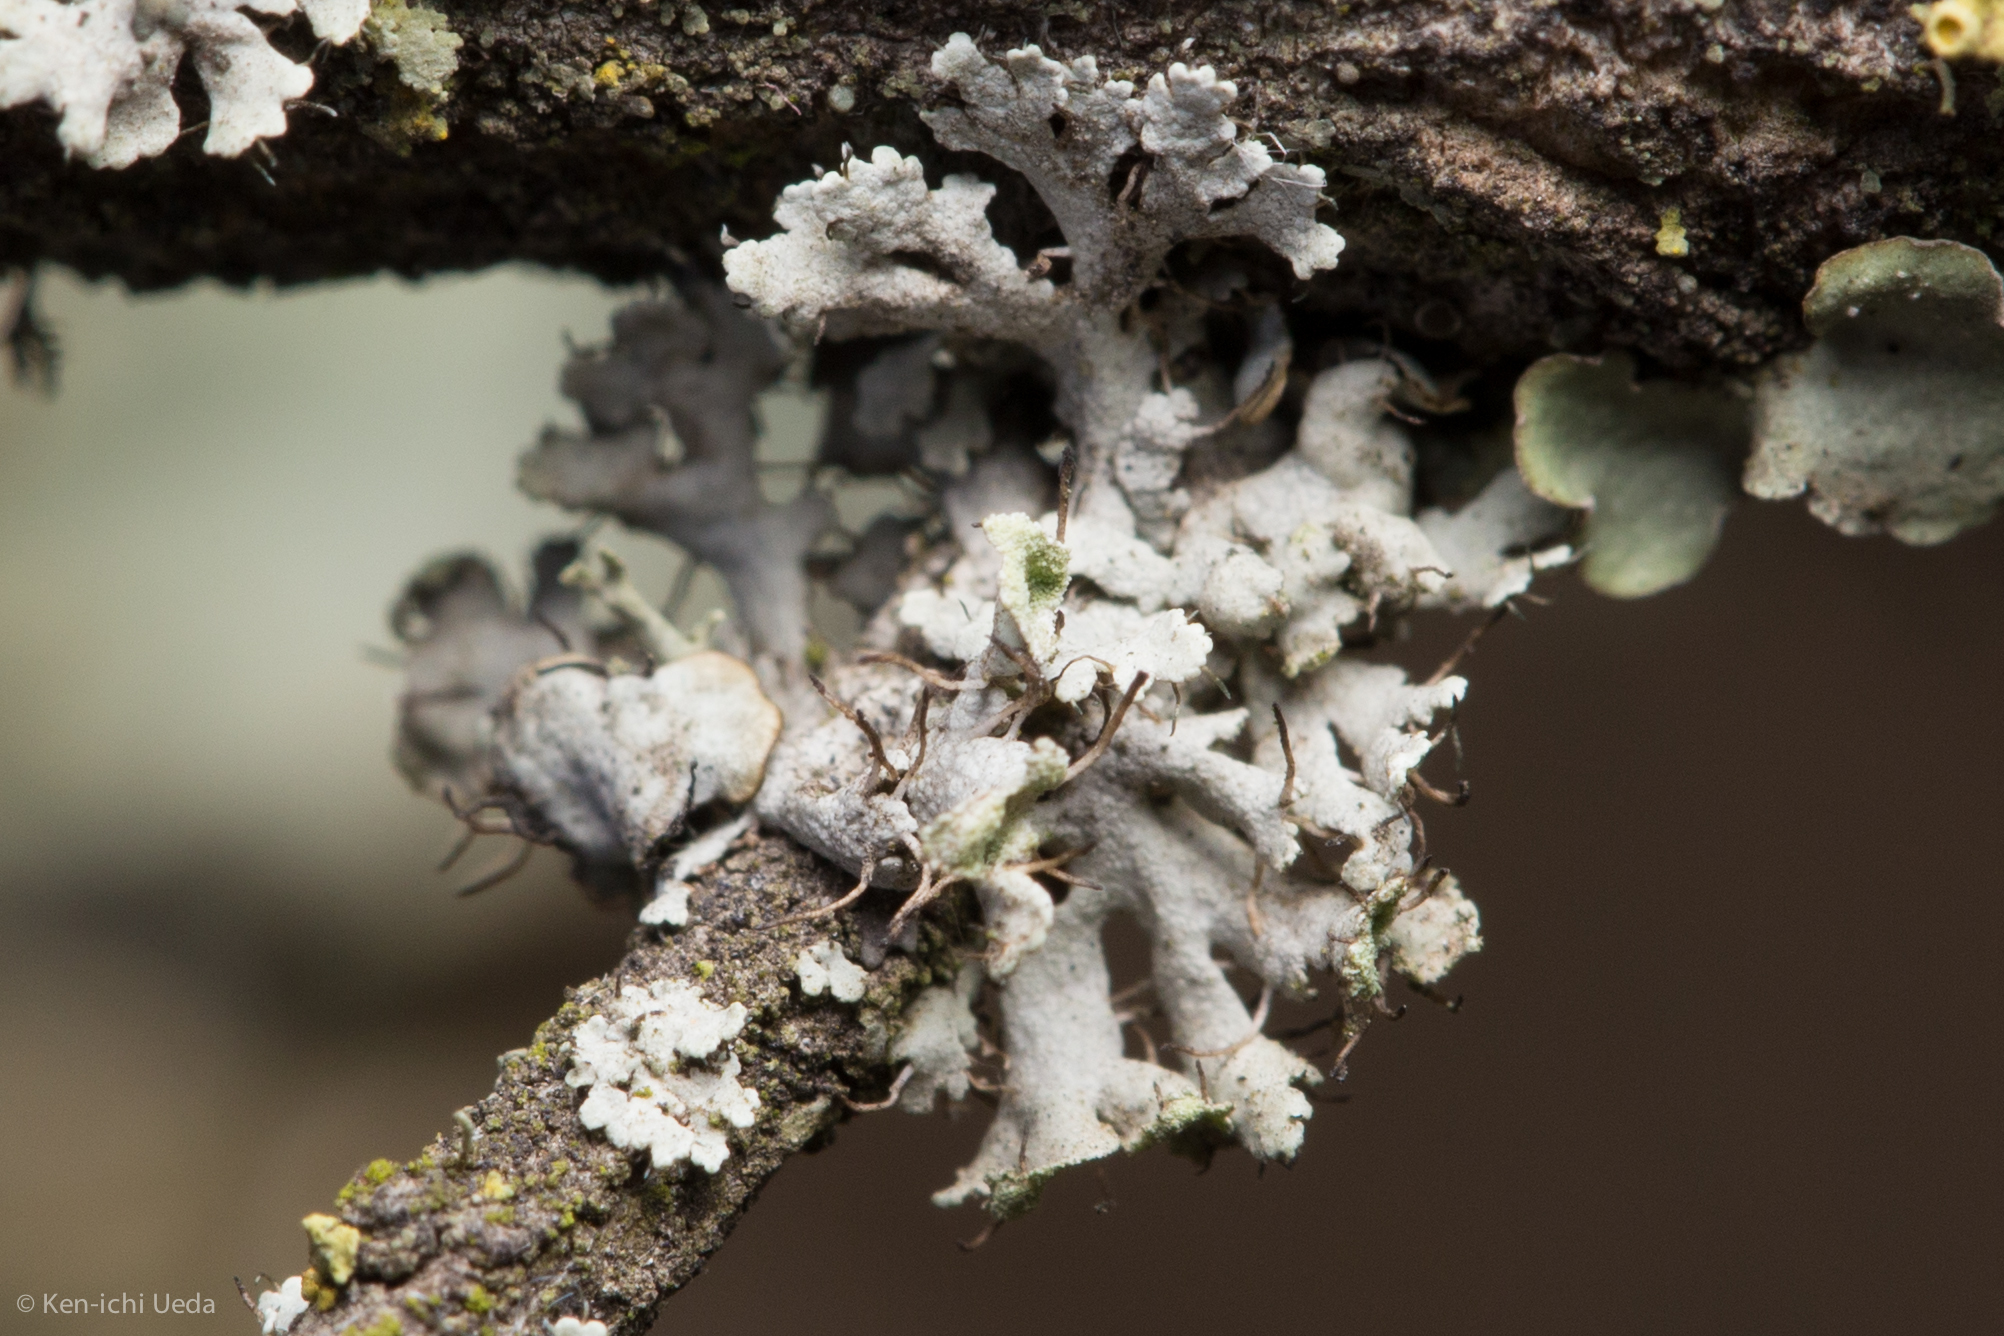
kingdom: Fungi
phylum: Ascomycota
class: Lecanoromycetes
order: Caliciales
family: Physciaceae
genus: Physcia
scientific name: Physcia adscendens
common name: Hooded rosette lichen
